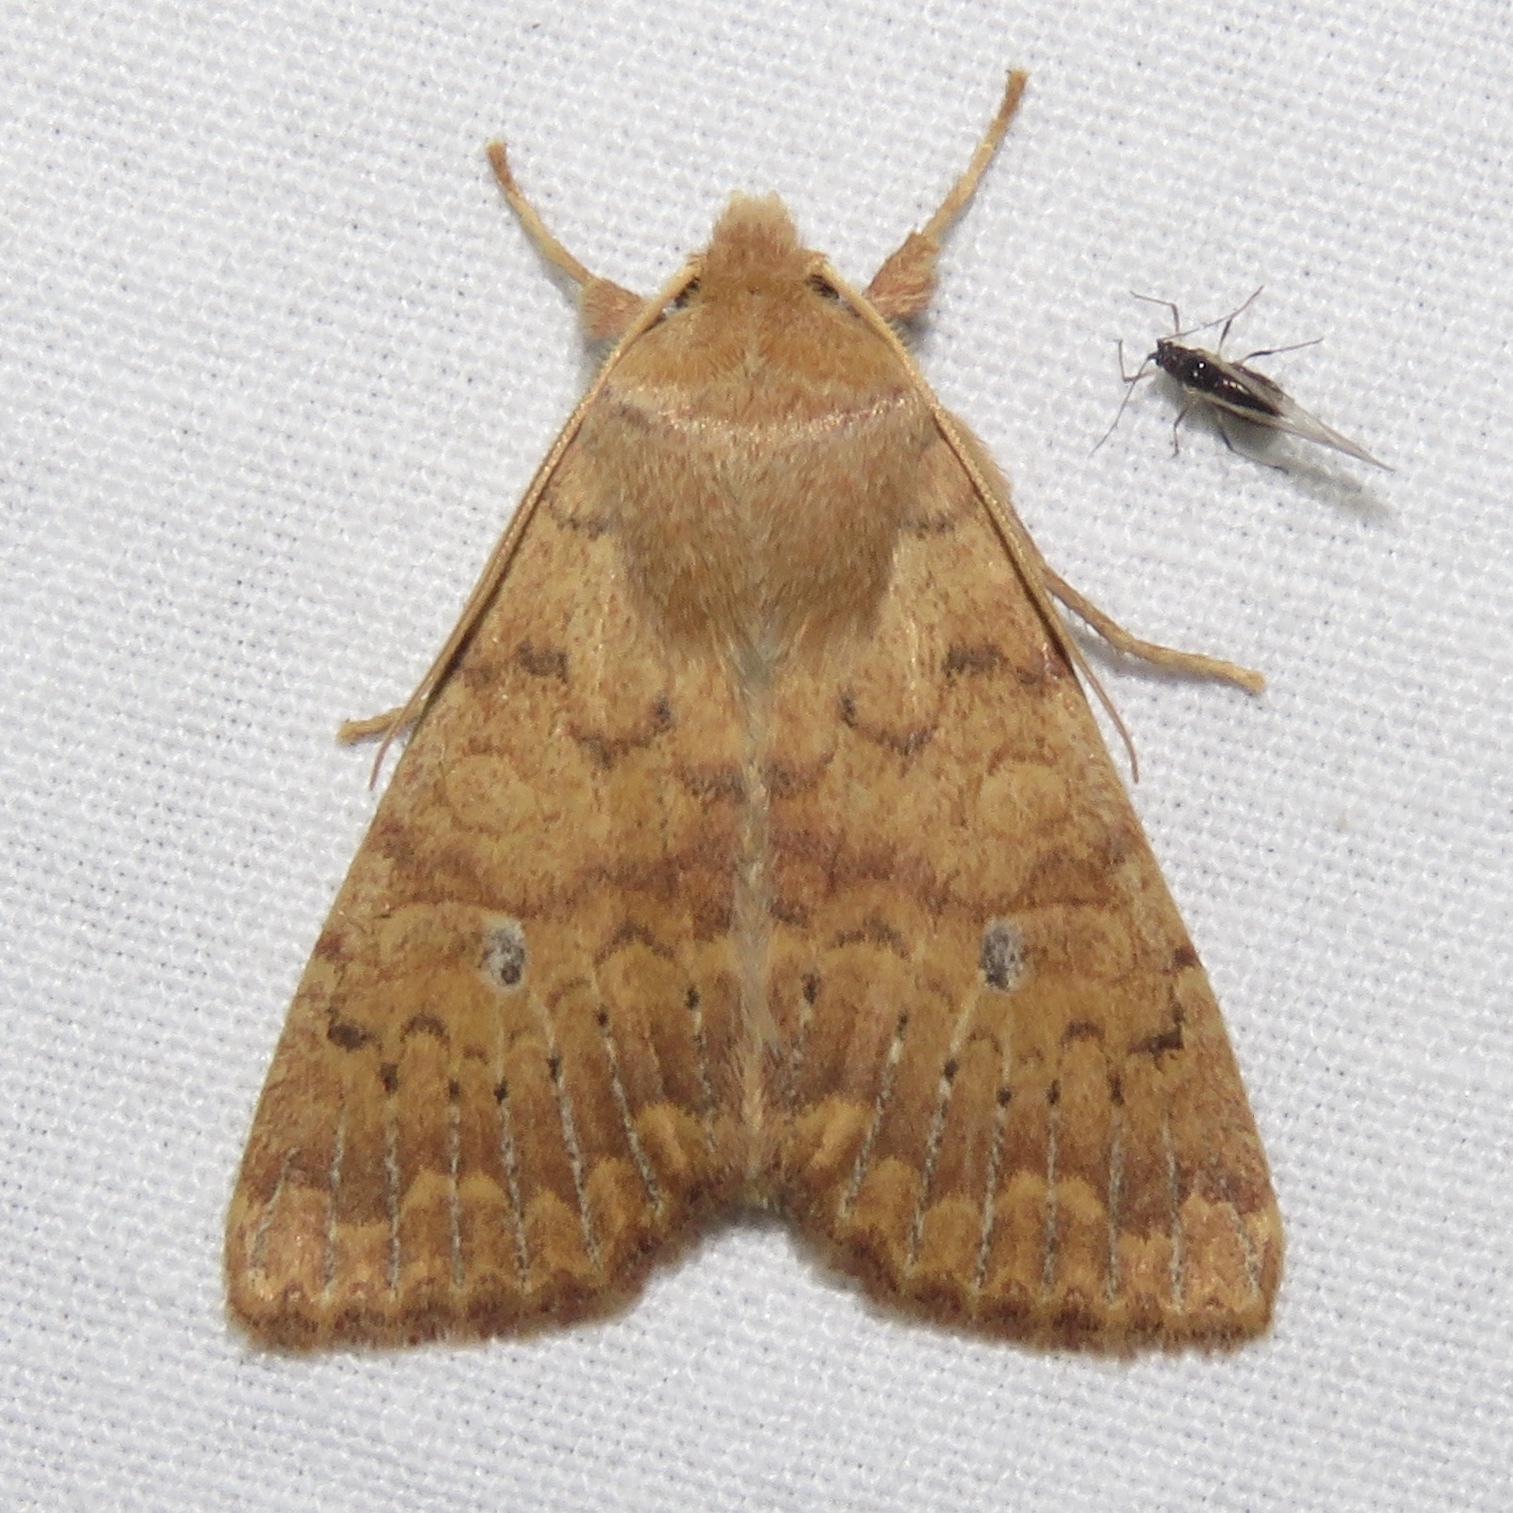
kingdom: Animalia
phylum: Arthropoda
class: Insecta
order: Lepidoptera
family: Noctuidae
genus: Agrochola
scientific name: Agrochola bicolorago
